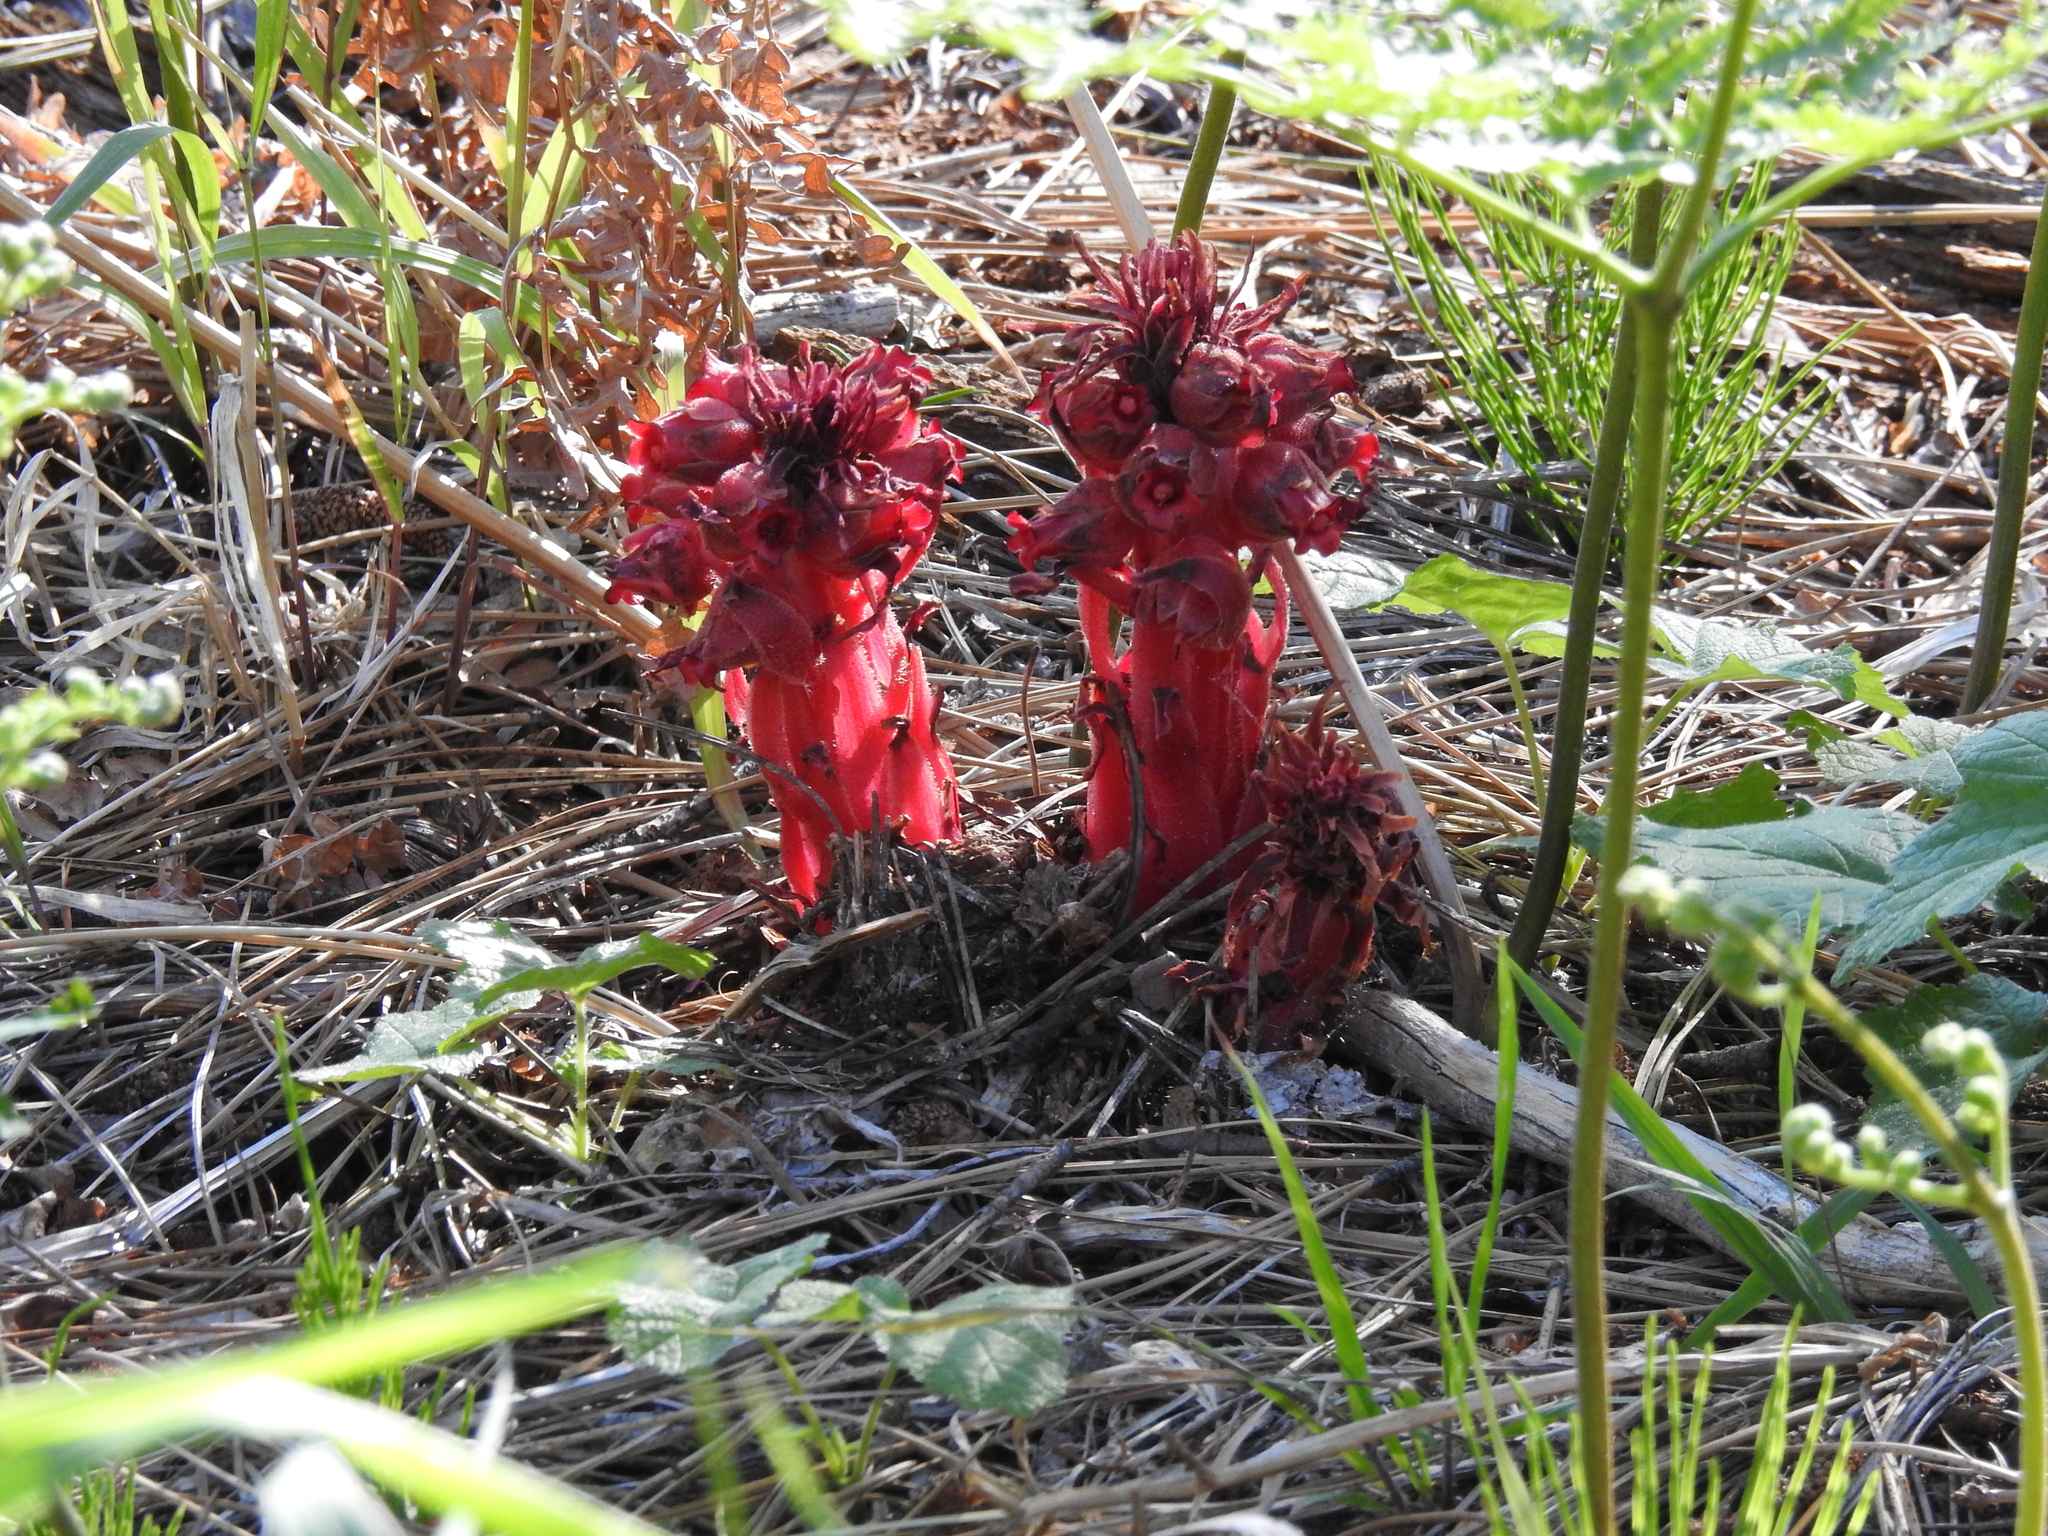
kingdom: Plantae
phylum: Tracheophyta
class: Magnoliopsida
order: Ericales
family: Ericaceae
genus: Sarcodes
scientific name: Sarcodes sanguinea
